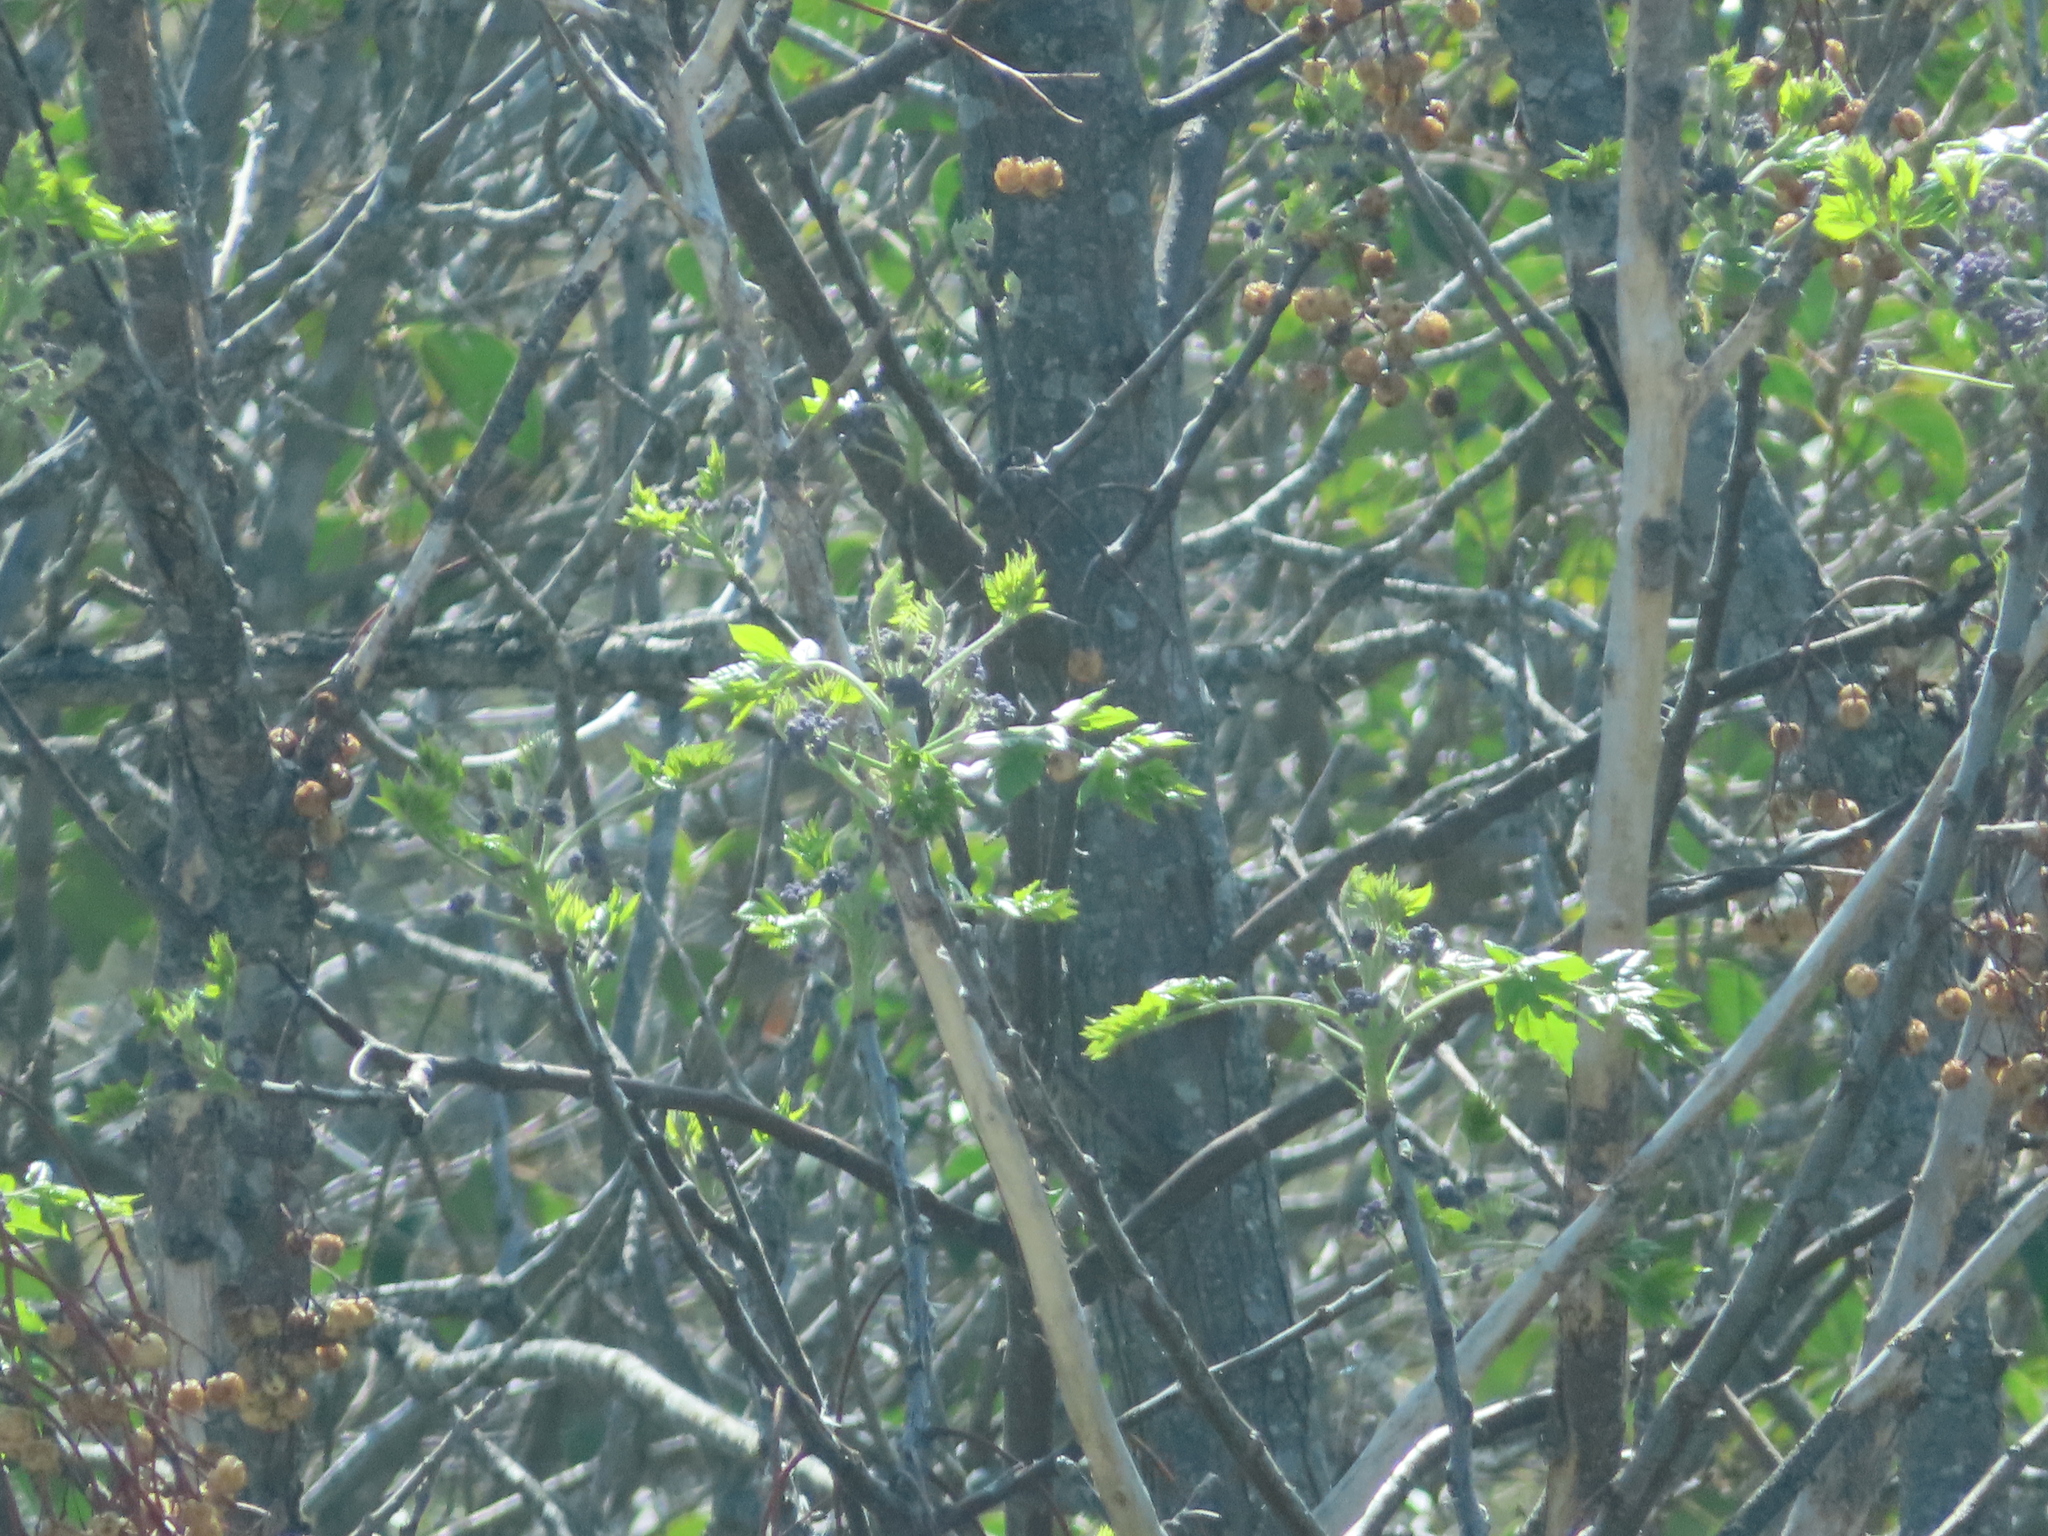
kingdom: Plantae
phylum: Tracheophyta
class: Magnoliopsida
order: Sapindales
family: Meliaceae
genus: Melia
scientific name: Melia azedarach
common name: Chinaberrytree
